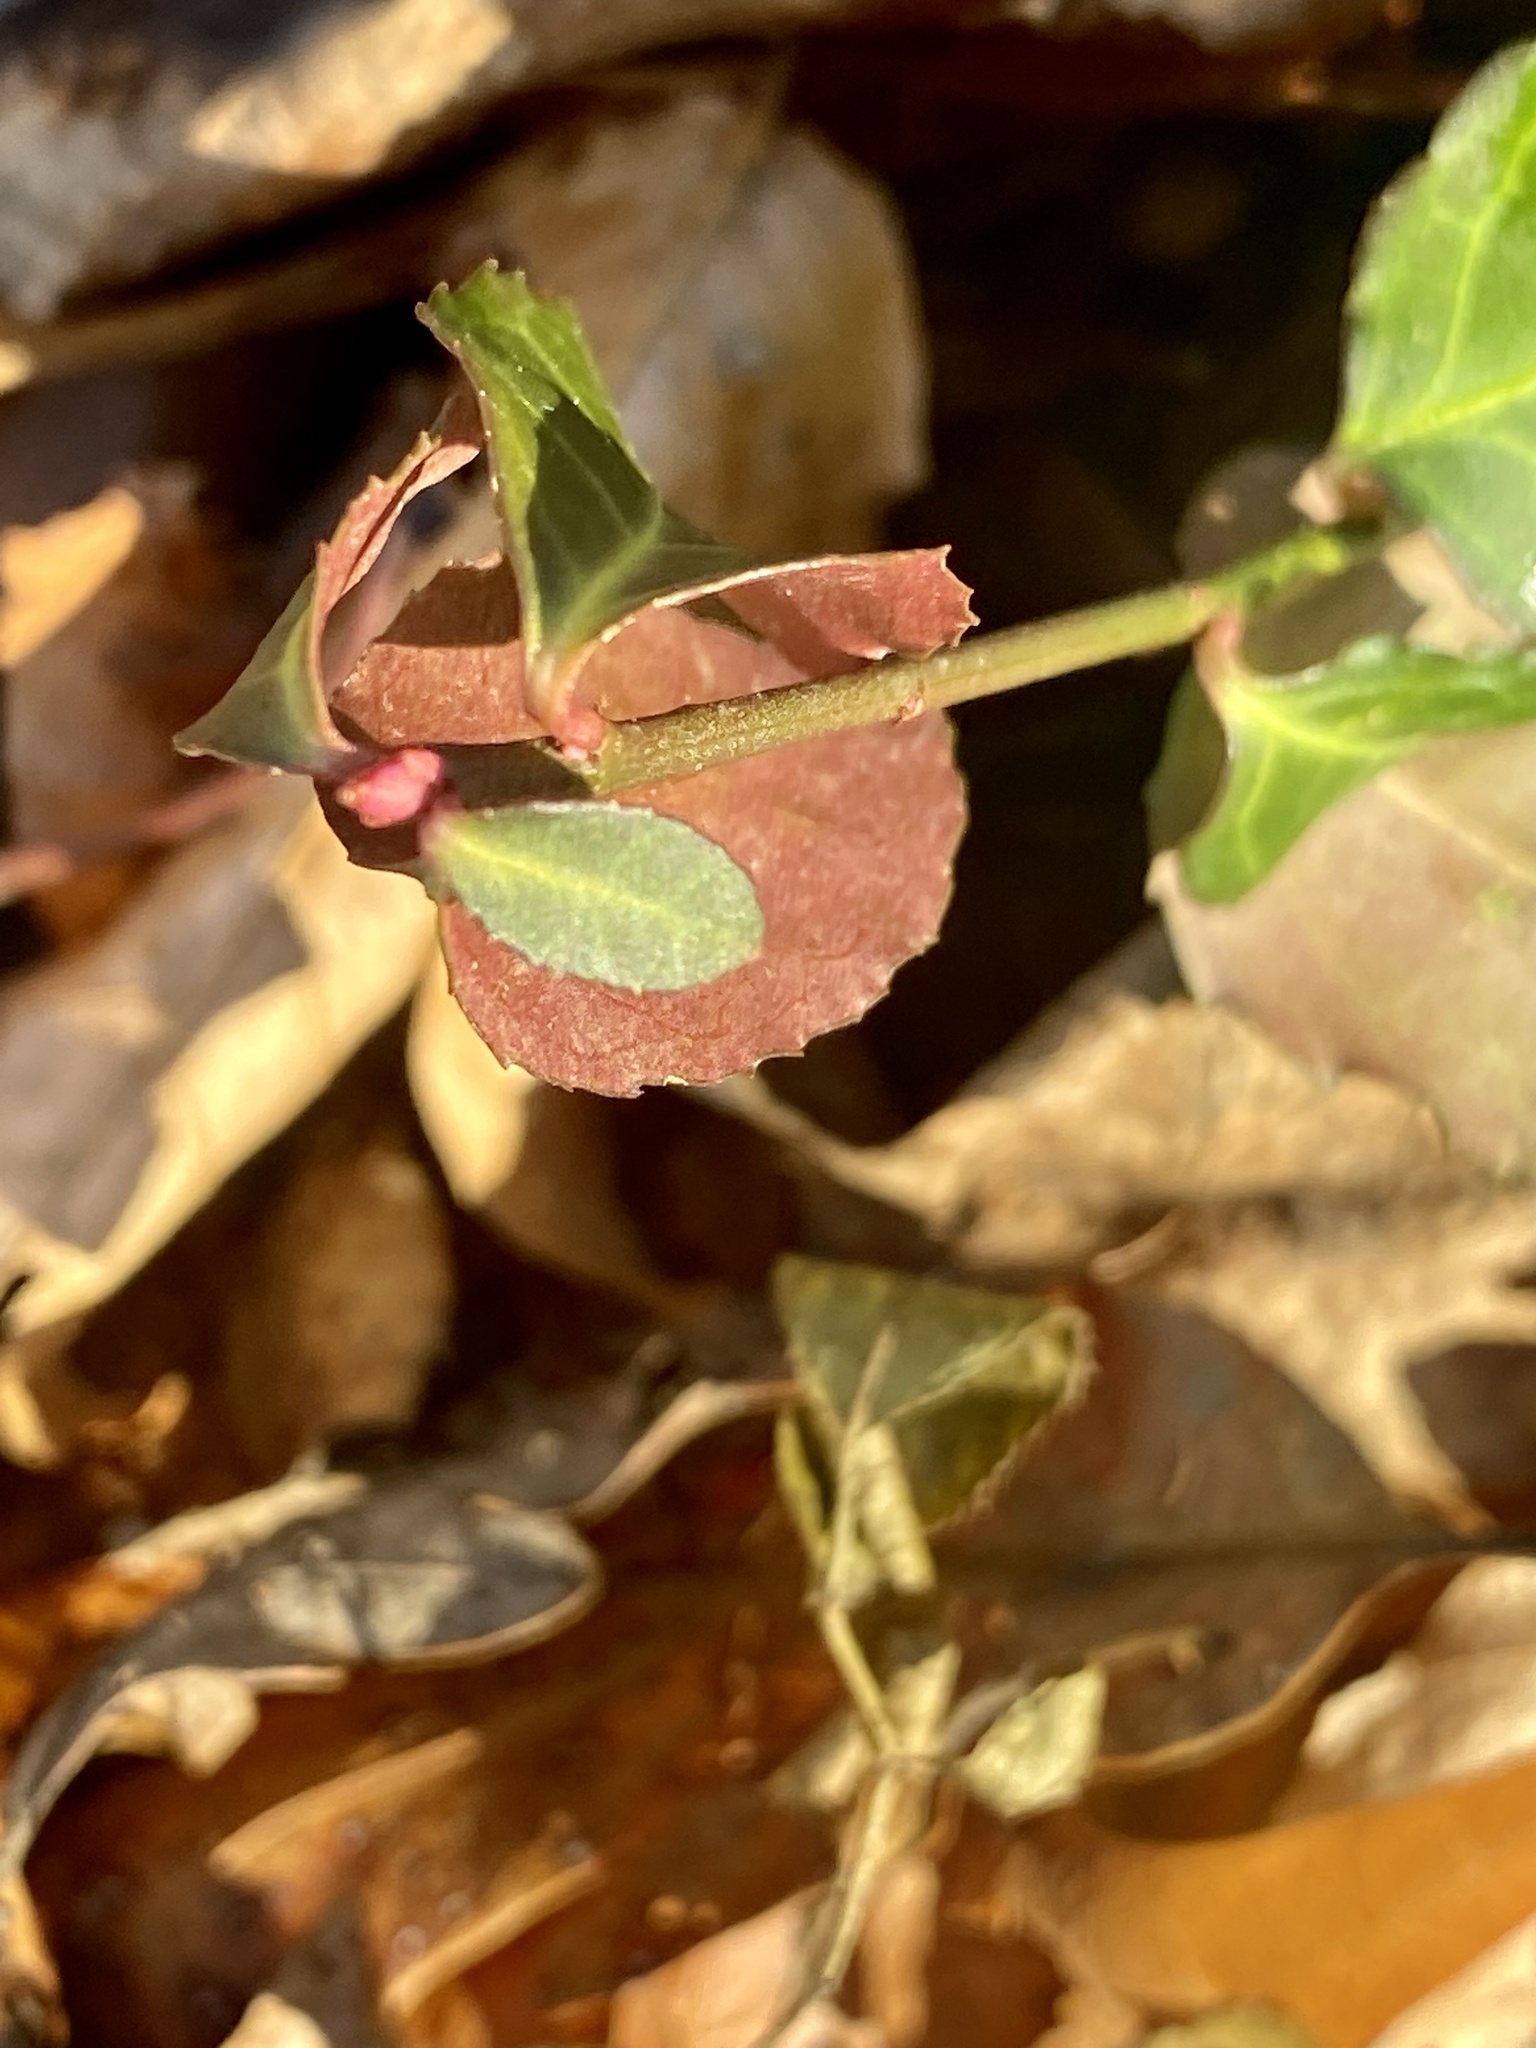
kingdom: Plantae
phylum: Tracheophyta
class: Magnoliopsida
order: Celastrales
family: Celastraceae
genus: Euonymus
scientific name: Euonymus fortunei
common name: Climbing euonymus
